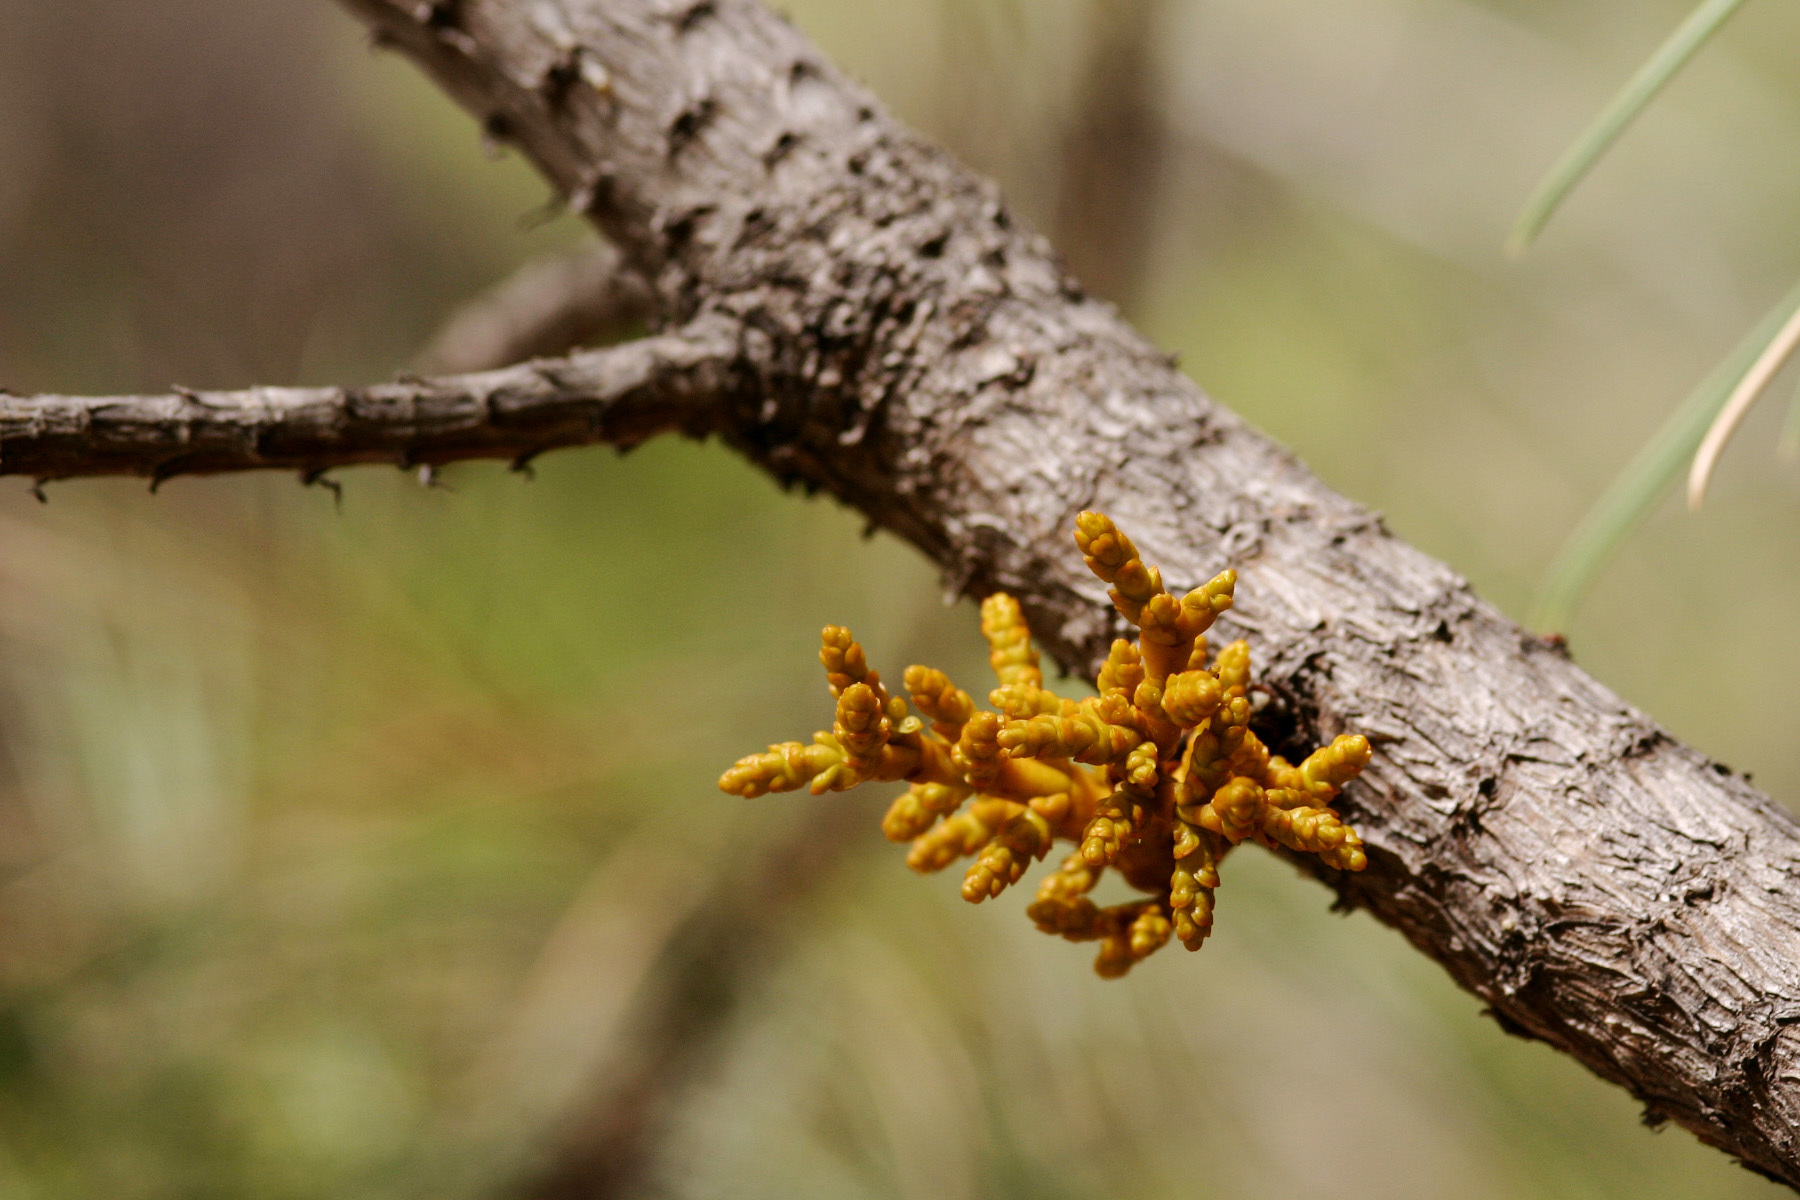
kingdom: Plantae
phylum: Tracheophyta
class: Magnoliopsida
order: Santalales
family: Viscaceae
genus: Arceuthobium
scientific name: Arceuthobium vaginatum
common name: Southwestern dwarf-mistletoe
